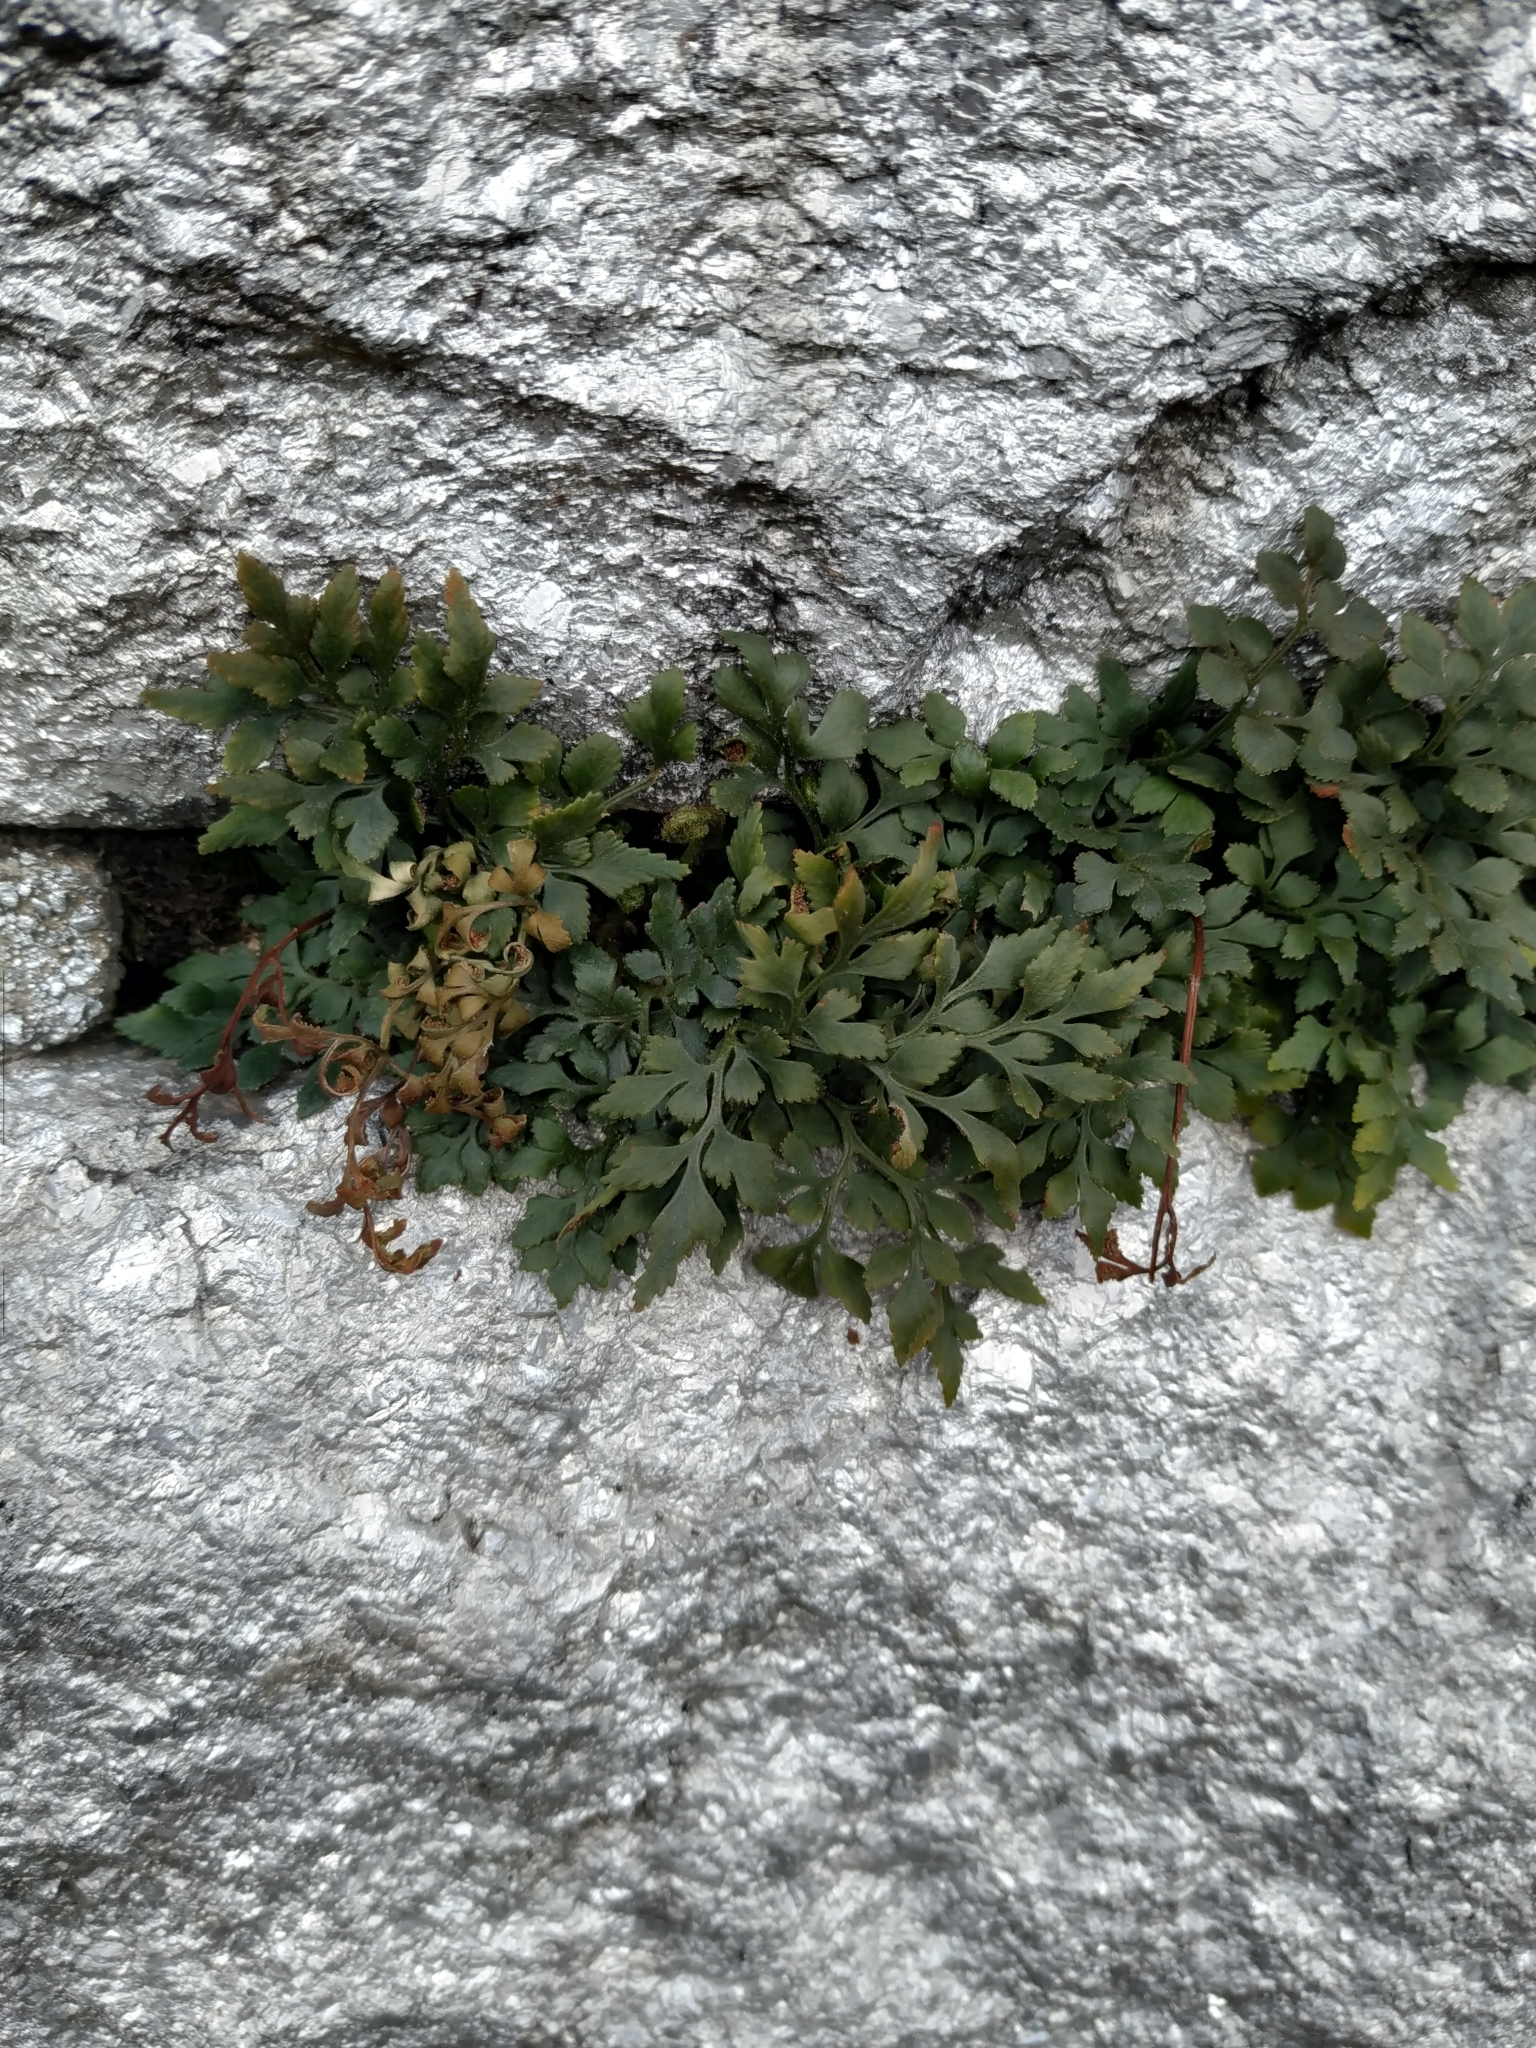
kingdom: Plantae
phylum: Tracheophyta
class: Polypodiopsida
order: Polypodiales
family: Aspleniaceae
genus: Asplenium
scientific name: Asplenium ruta-muraria
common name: Wall-rue
